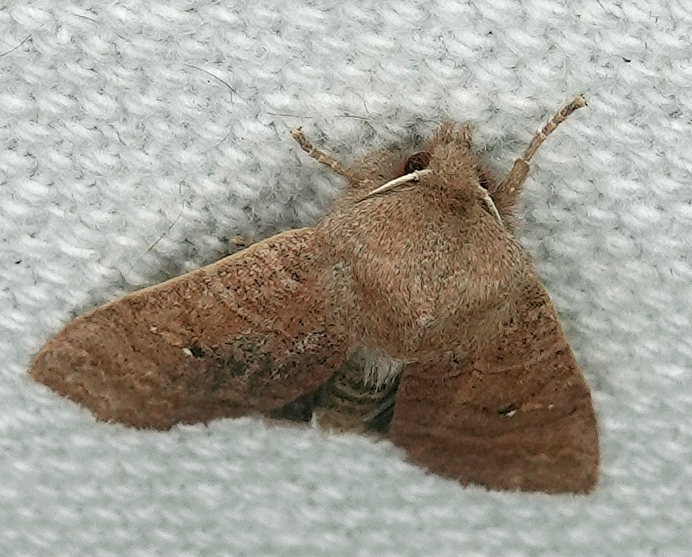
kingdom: Animalia
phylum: Arthropoda
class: Insecta
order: Lepidoptera
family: Noctuidae
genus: Eupsilia
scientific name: Eupsilia vinulenta
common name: Straight-toothed sallow
